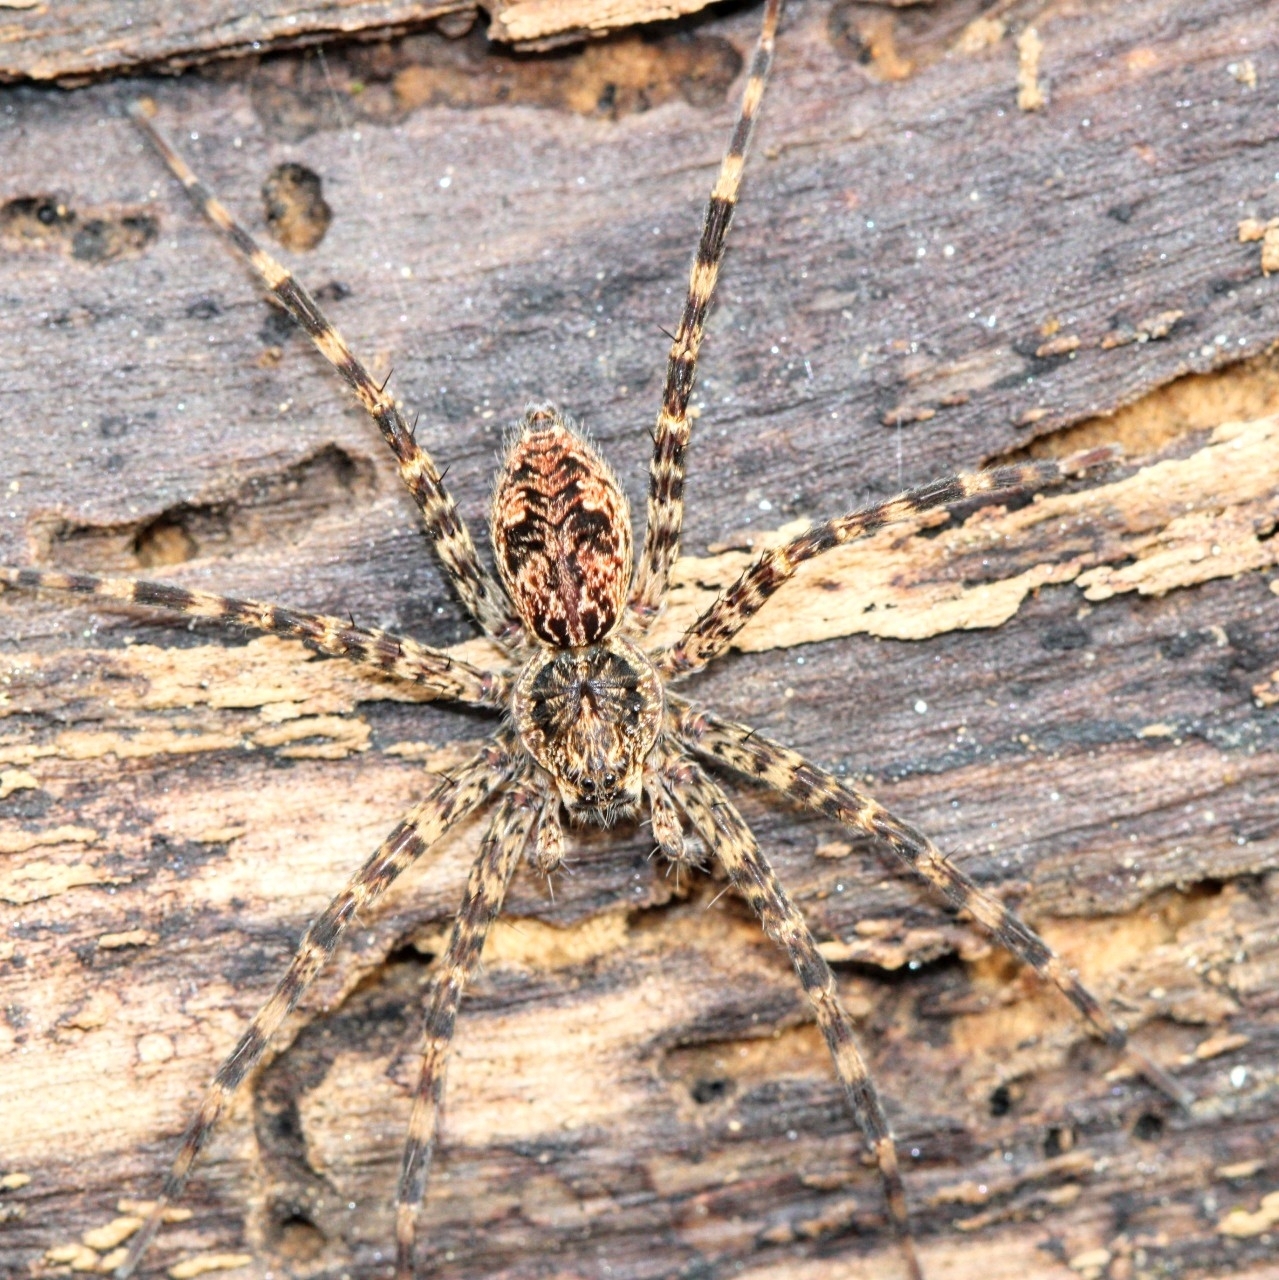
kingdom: Animalia
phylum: Arthropoda
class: Arachnida
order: Araneae
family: Pisauridae
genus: Dolomedes
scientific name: Dolomedes tenebrosus
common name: Dark fishing spider
